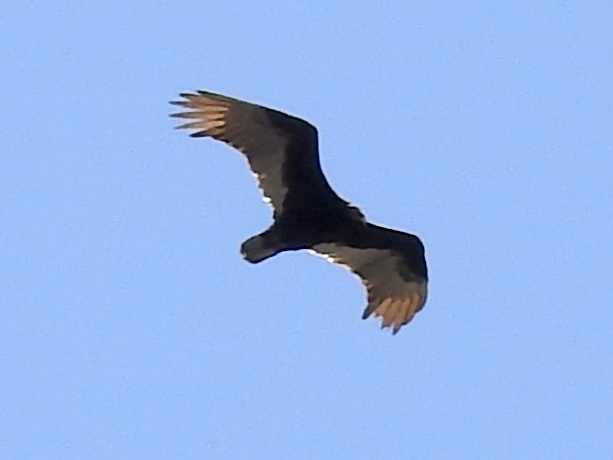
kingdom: Animalia
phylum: Chordata
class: Aves
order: Accipitriformes
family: Cathartidae
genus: Cathartes
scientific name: Cathartes aura
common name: Turkey vulture
